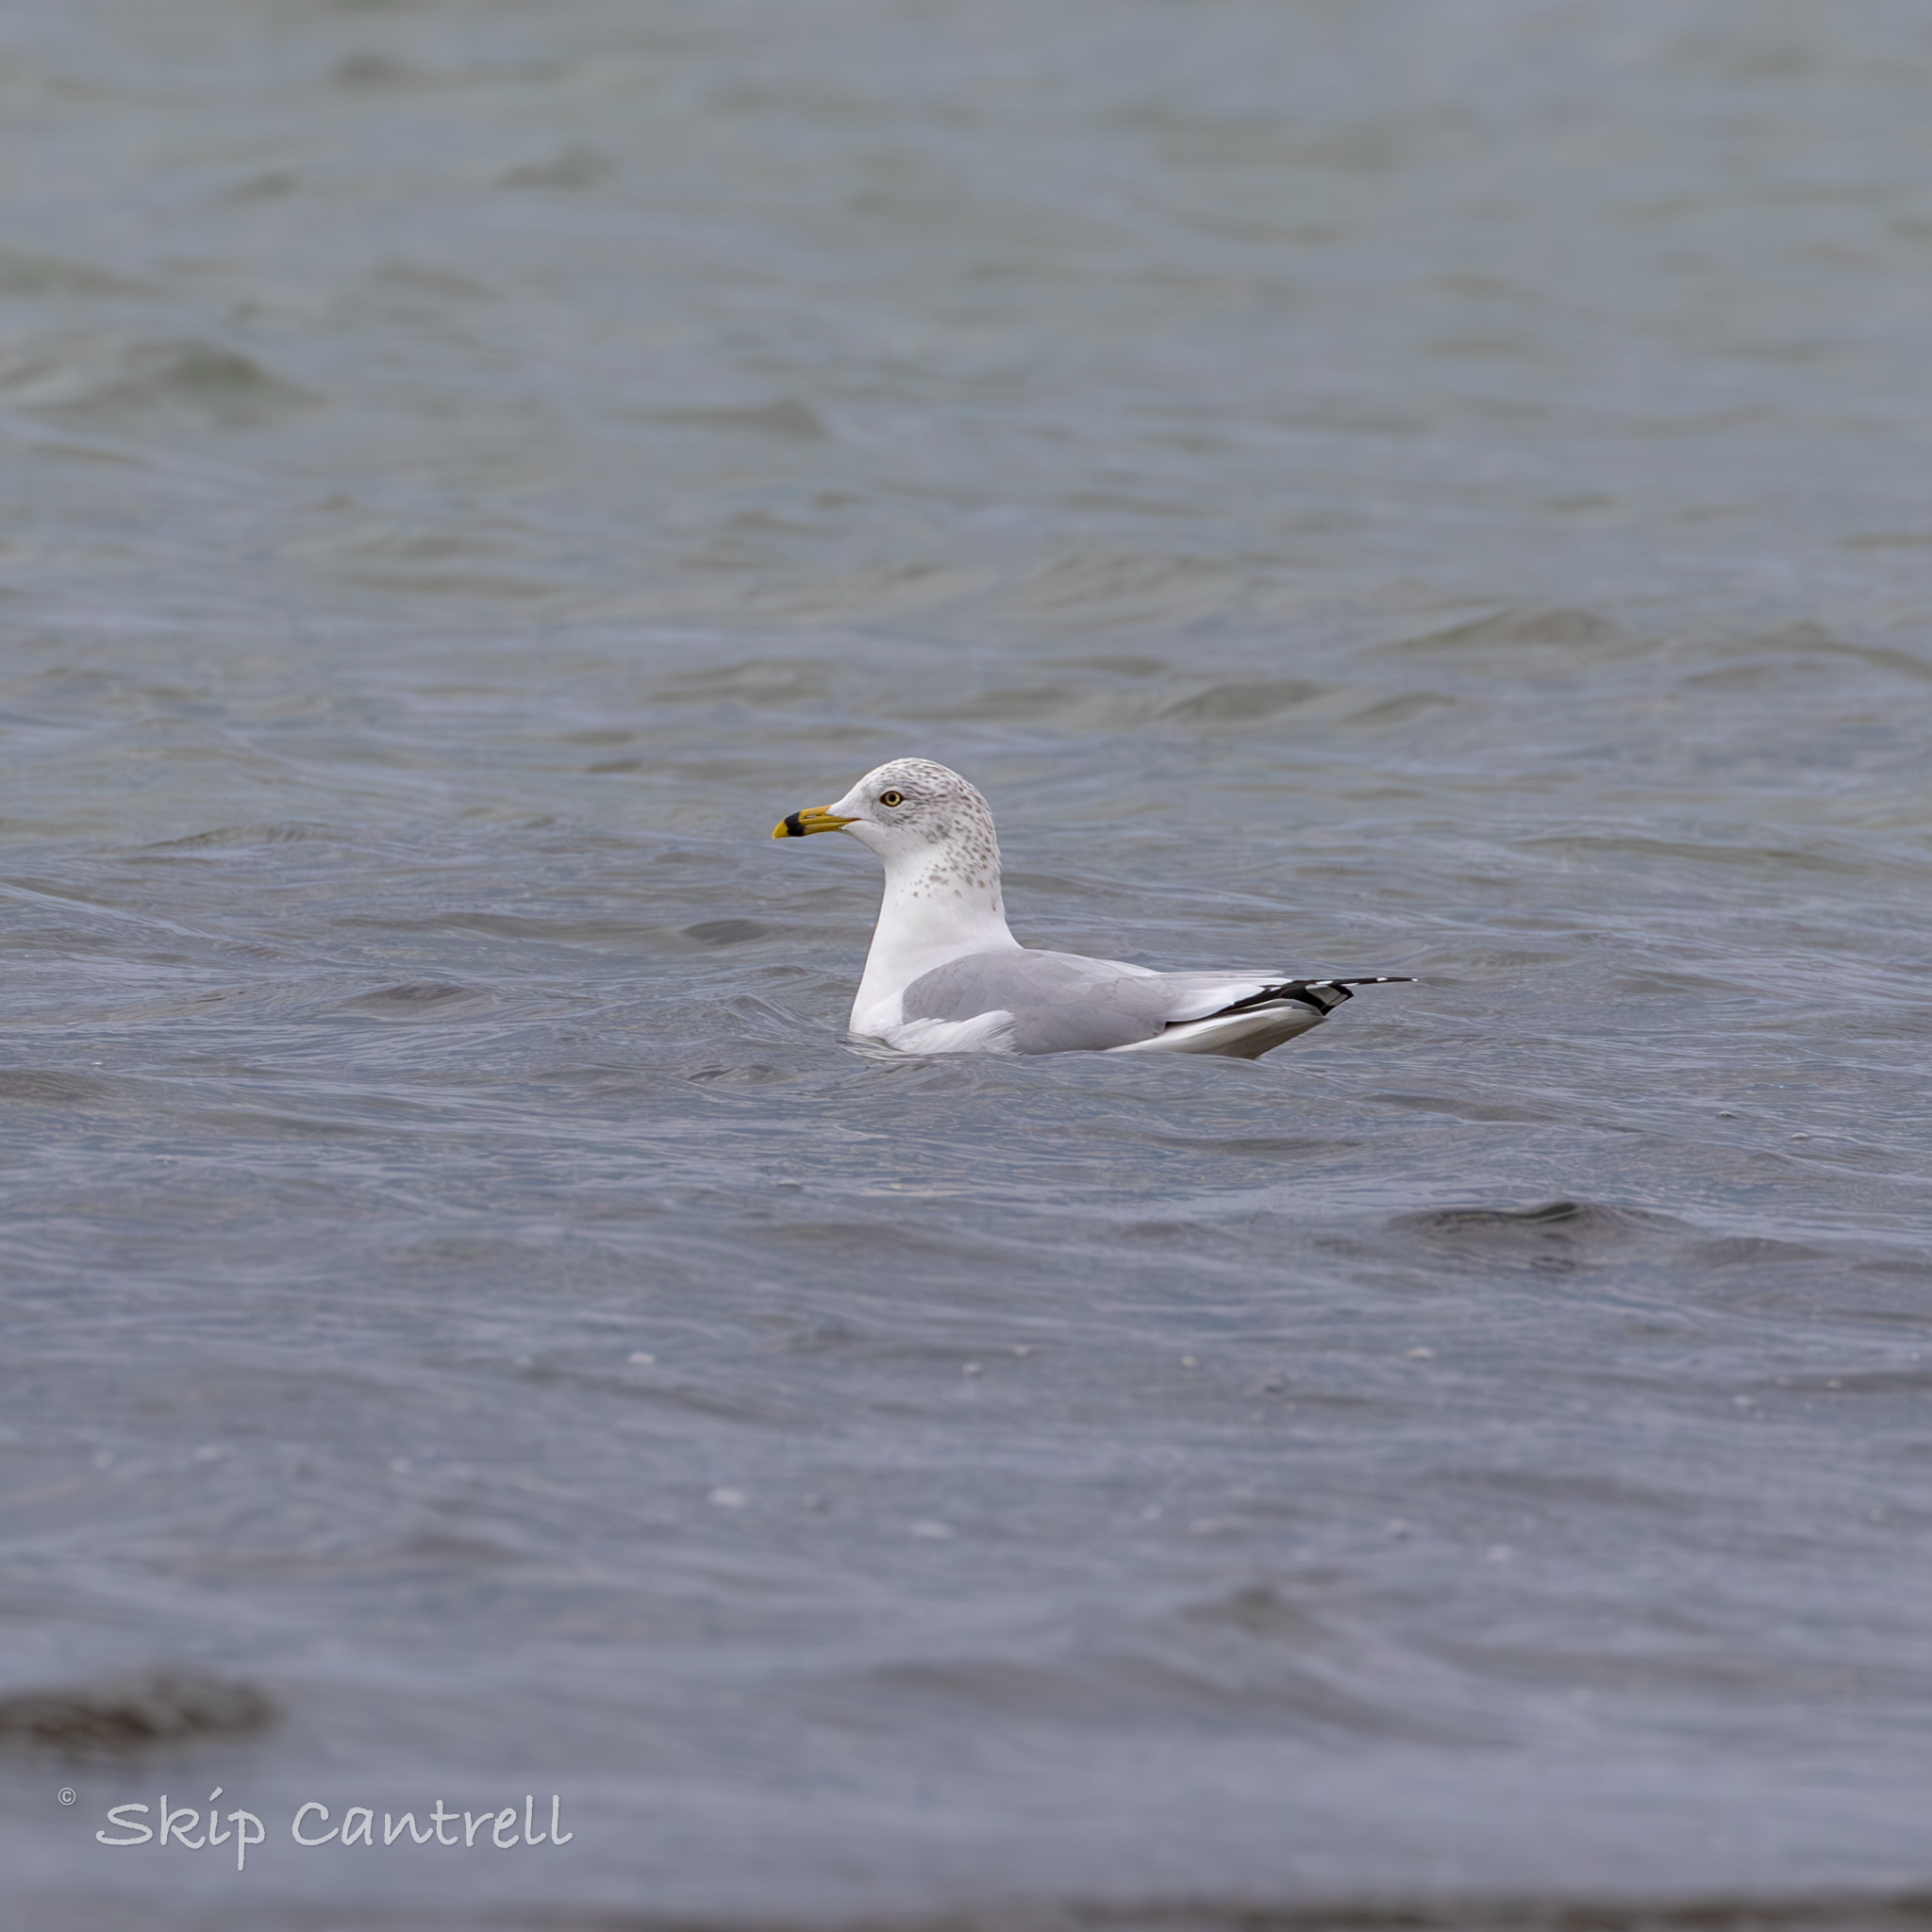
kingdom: Animalia
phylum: Chordata
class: Aves
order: Charadriiformes
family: Laridae
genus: Larus
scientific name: Larus delawarensis
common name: Ring-billed gull
